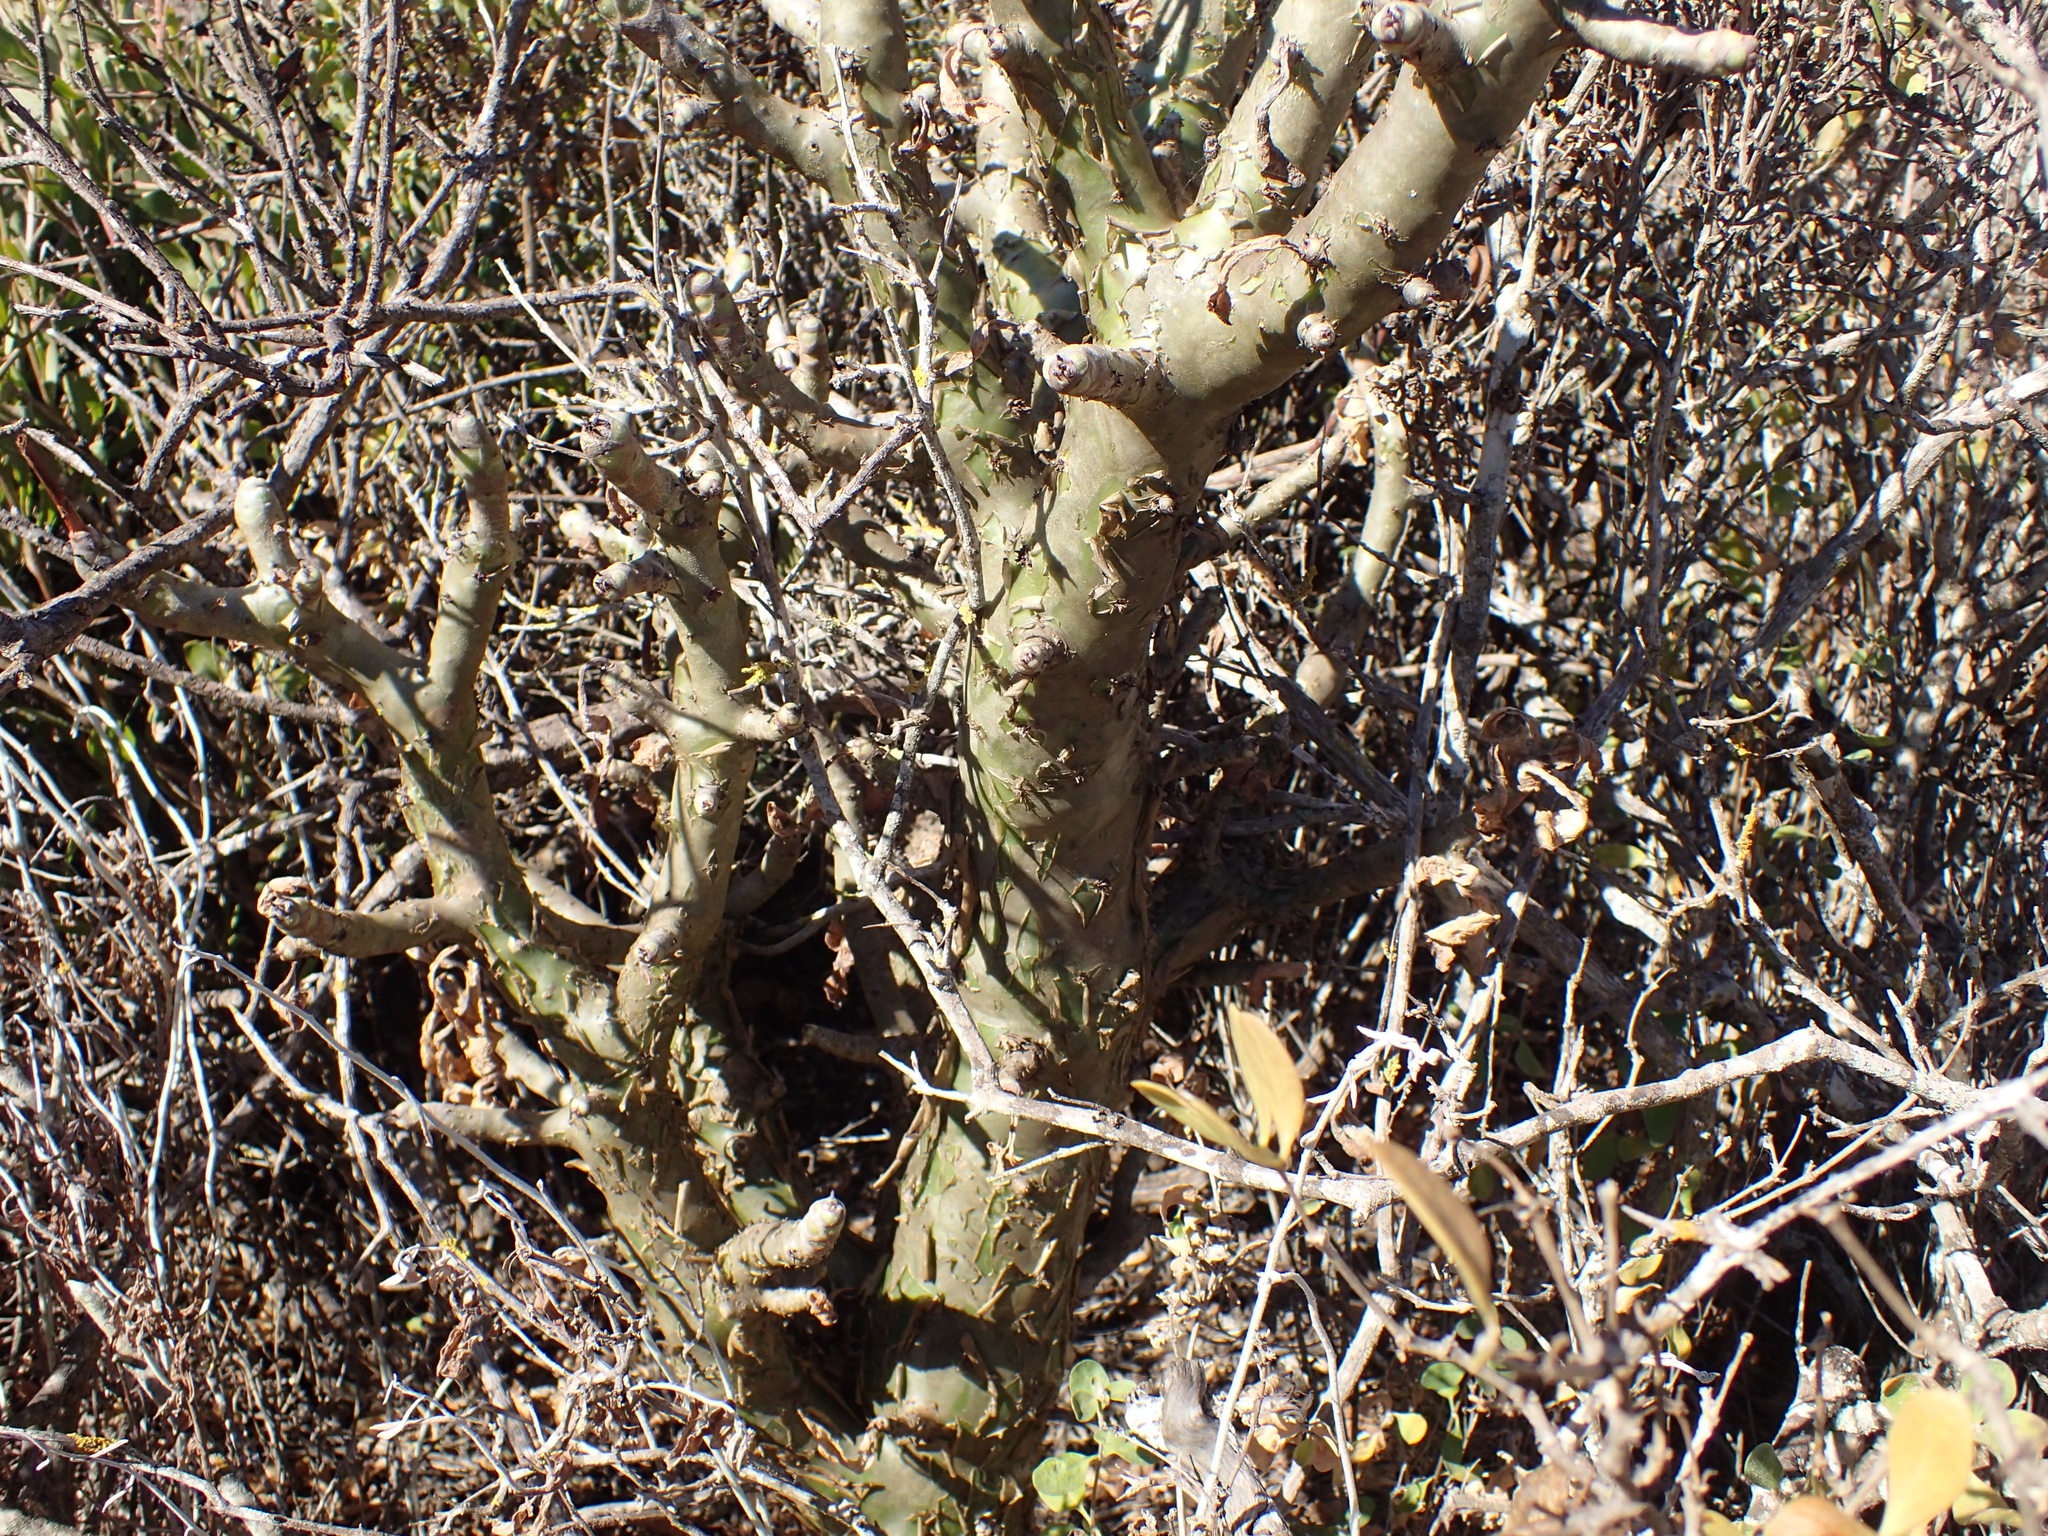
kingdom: Plantae
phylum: Tracheophyta
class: Magnoliopsida
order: Saxifragales
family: Crassulaceae
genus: Tylecodon
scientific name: Tylecodon paniculatus
